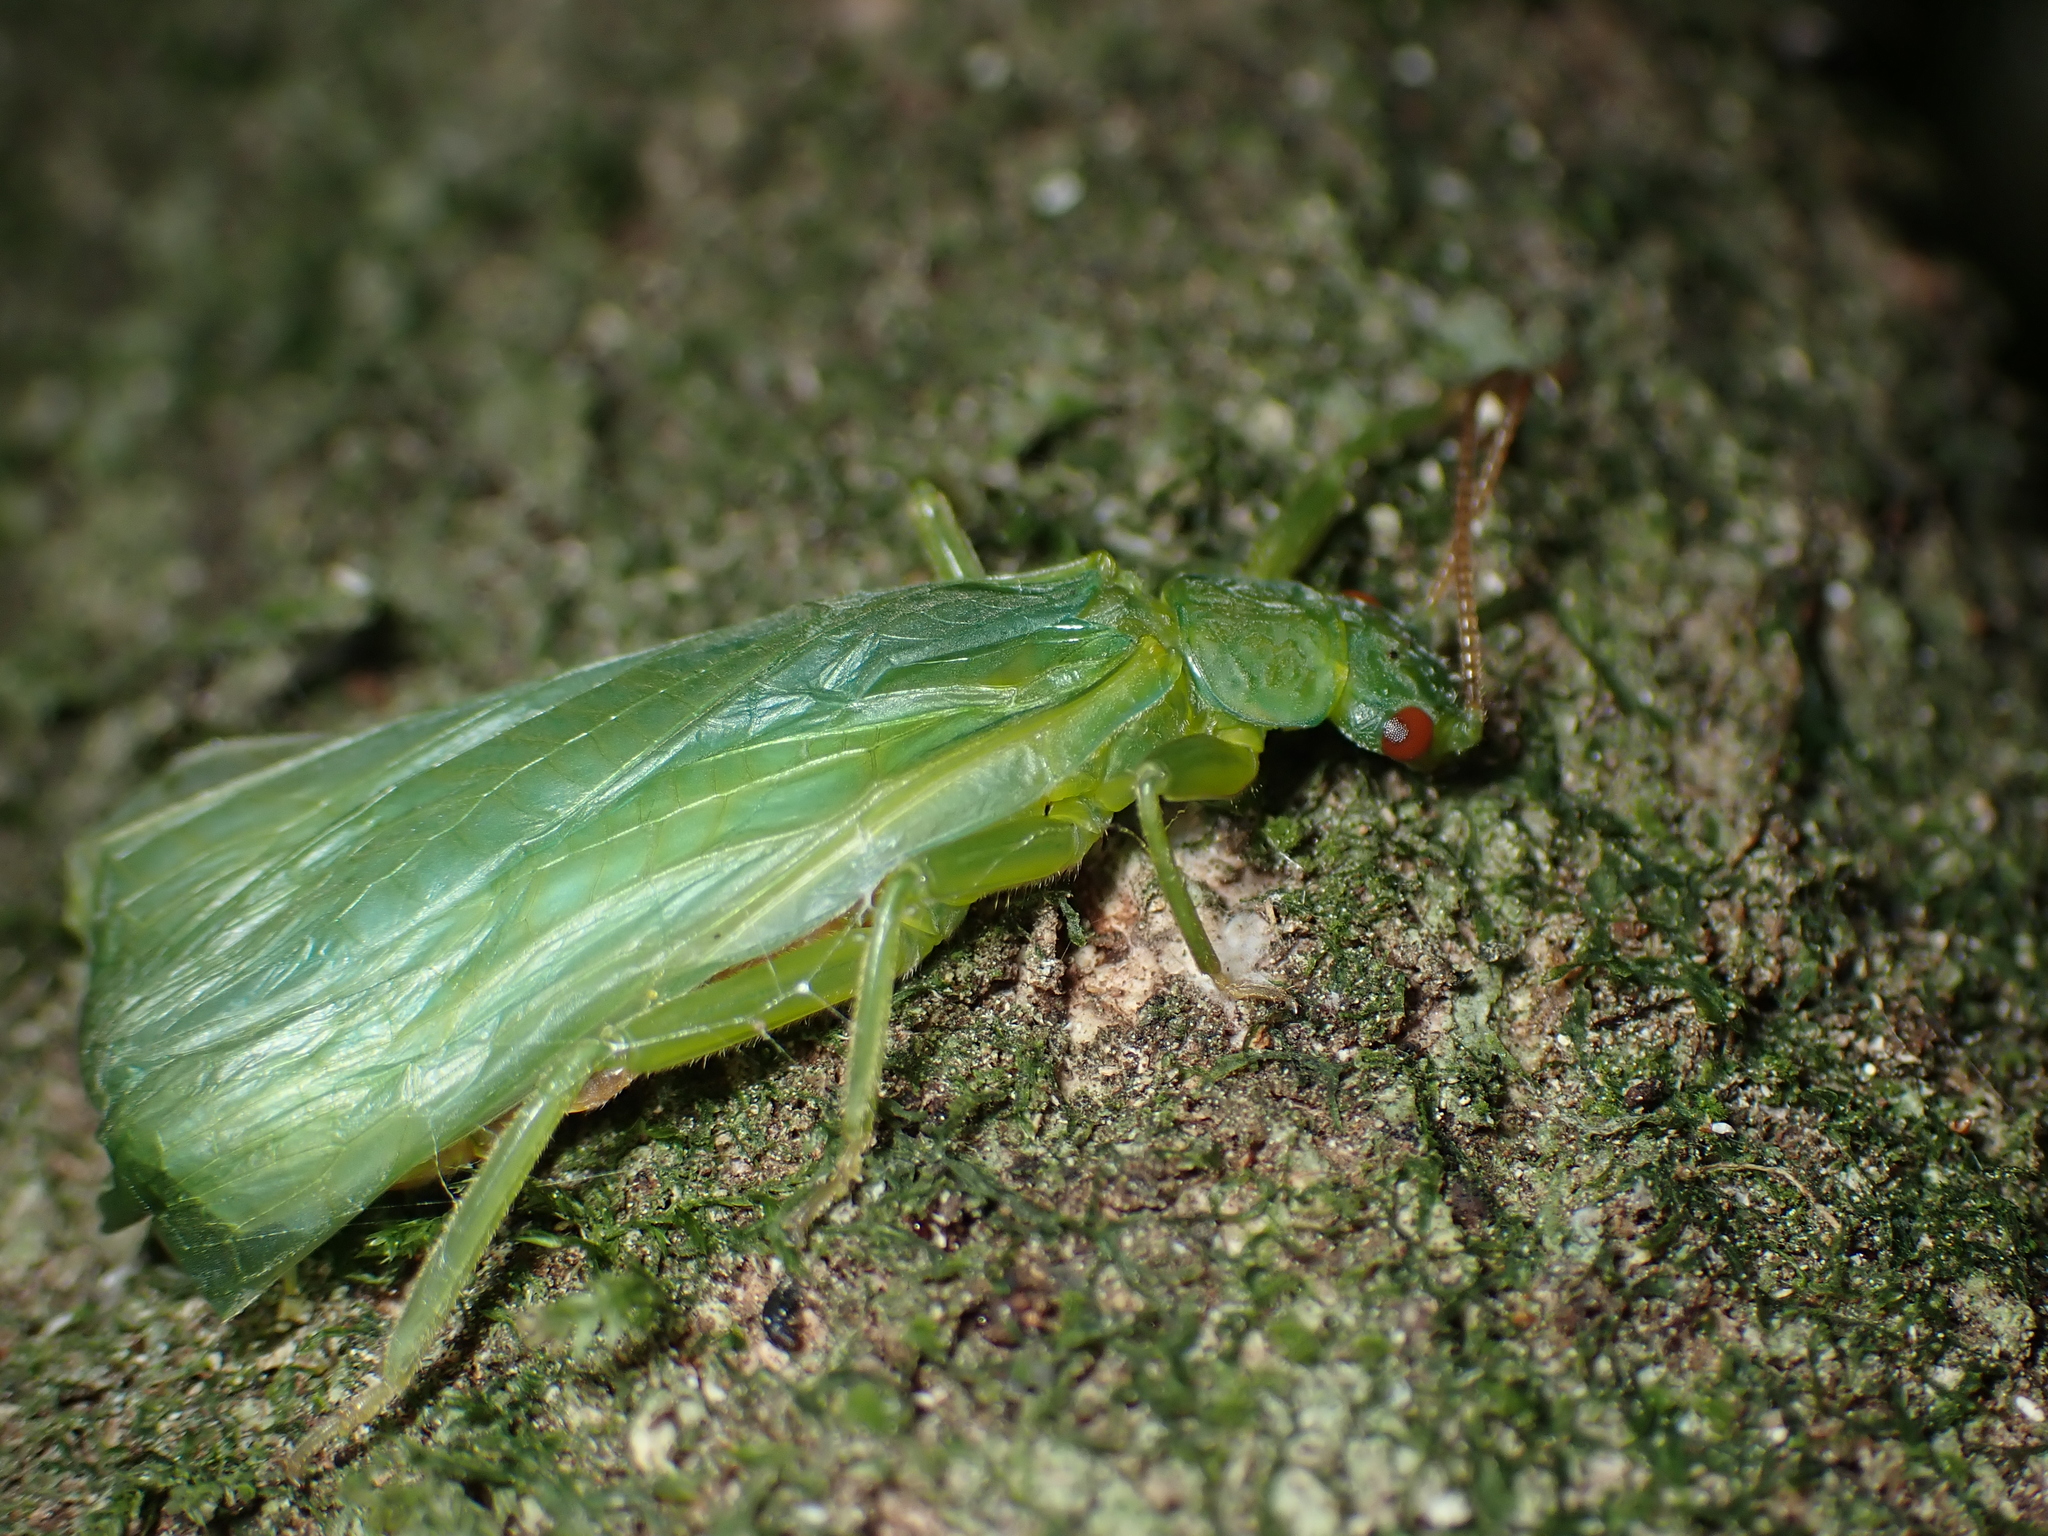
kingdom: Animalia
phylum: Arthropoda
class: Insecta
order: Plecoptera
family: Eustheniidae
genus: Stenoperla
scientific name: Stenoperla
